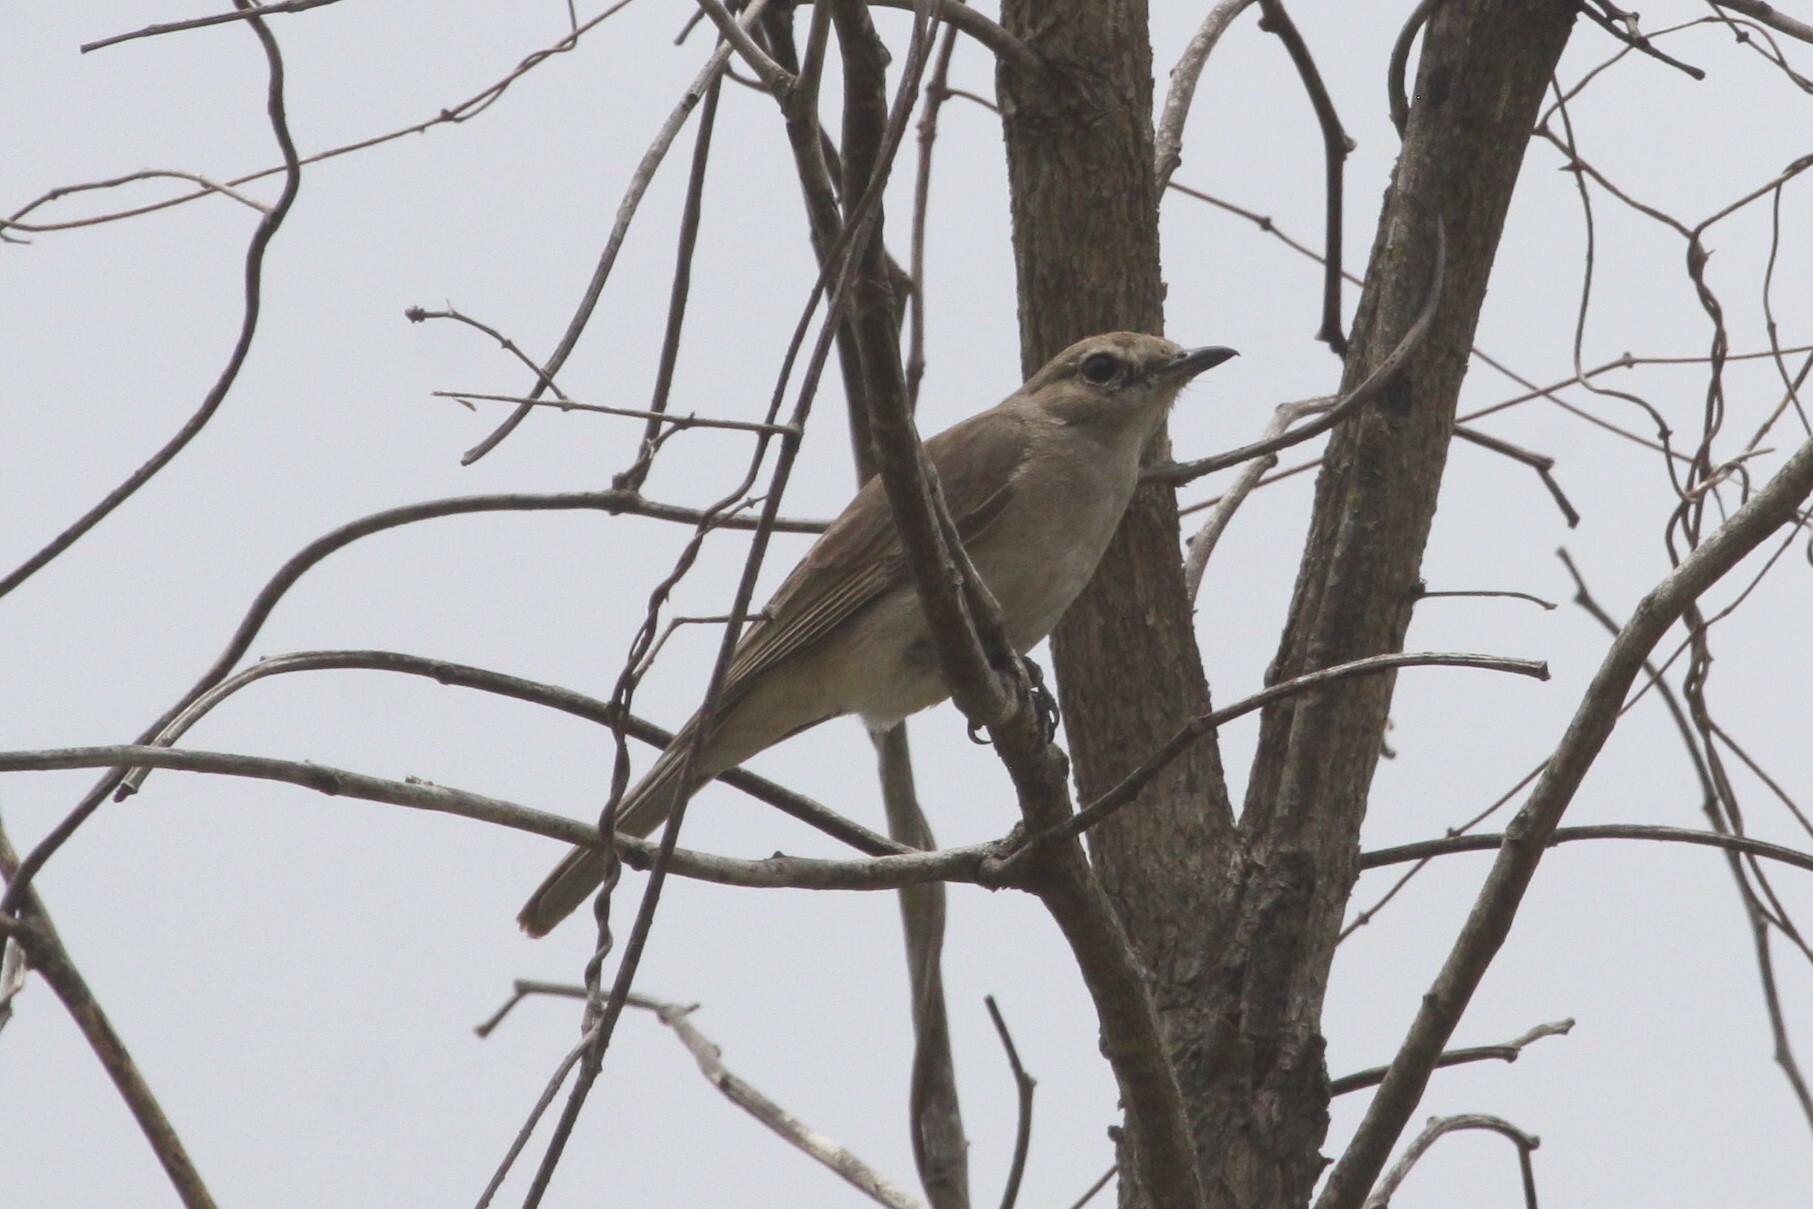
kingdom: Animalia
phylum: Chordata
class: Aves
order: Passeriformes
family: Muscicapidae
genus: Bradornis
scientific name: Bradornis pallidus
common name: Pale flycatcher
